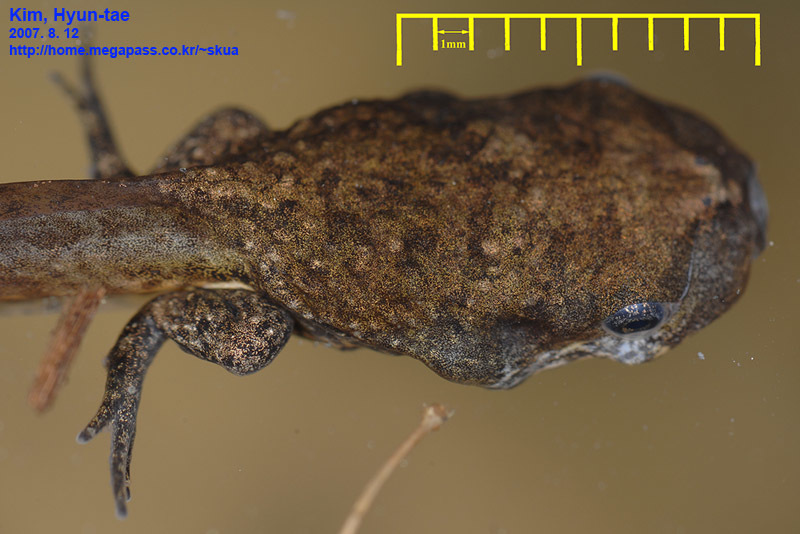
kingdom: Animalia
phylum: Chordata
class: Amphibia
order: Anura
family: Microhylidae
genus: Kaloula
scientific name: Kaloula borealis
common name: Boreal digging frog
